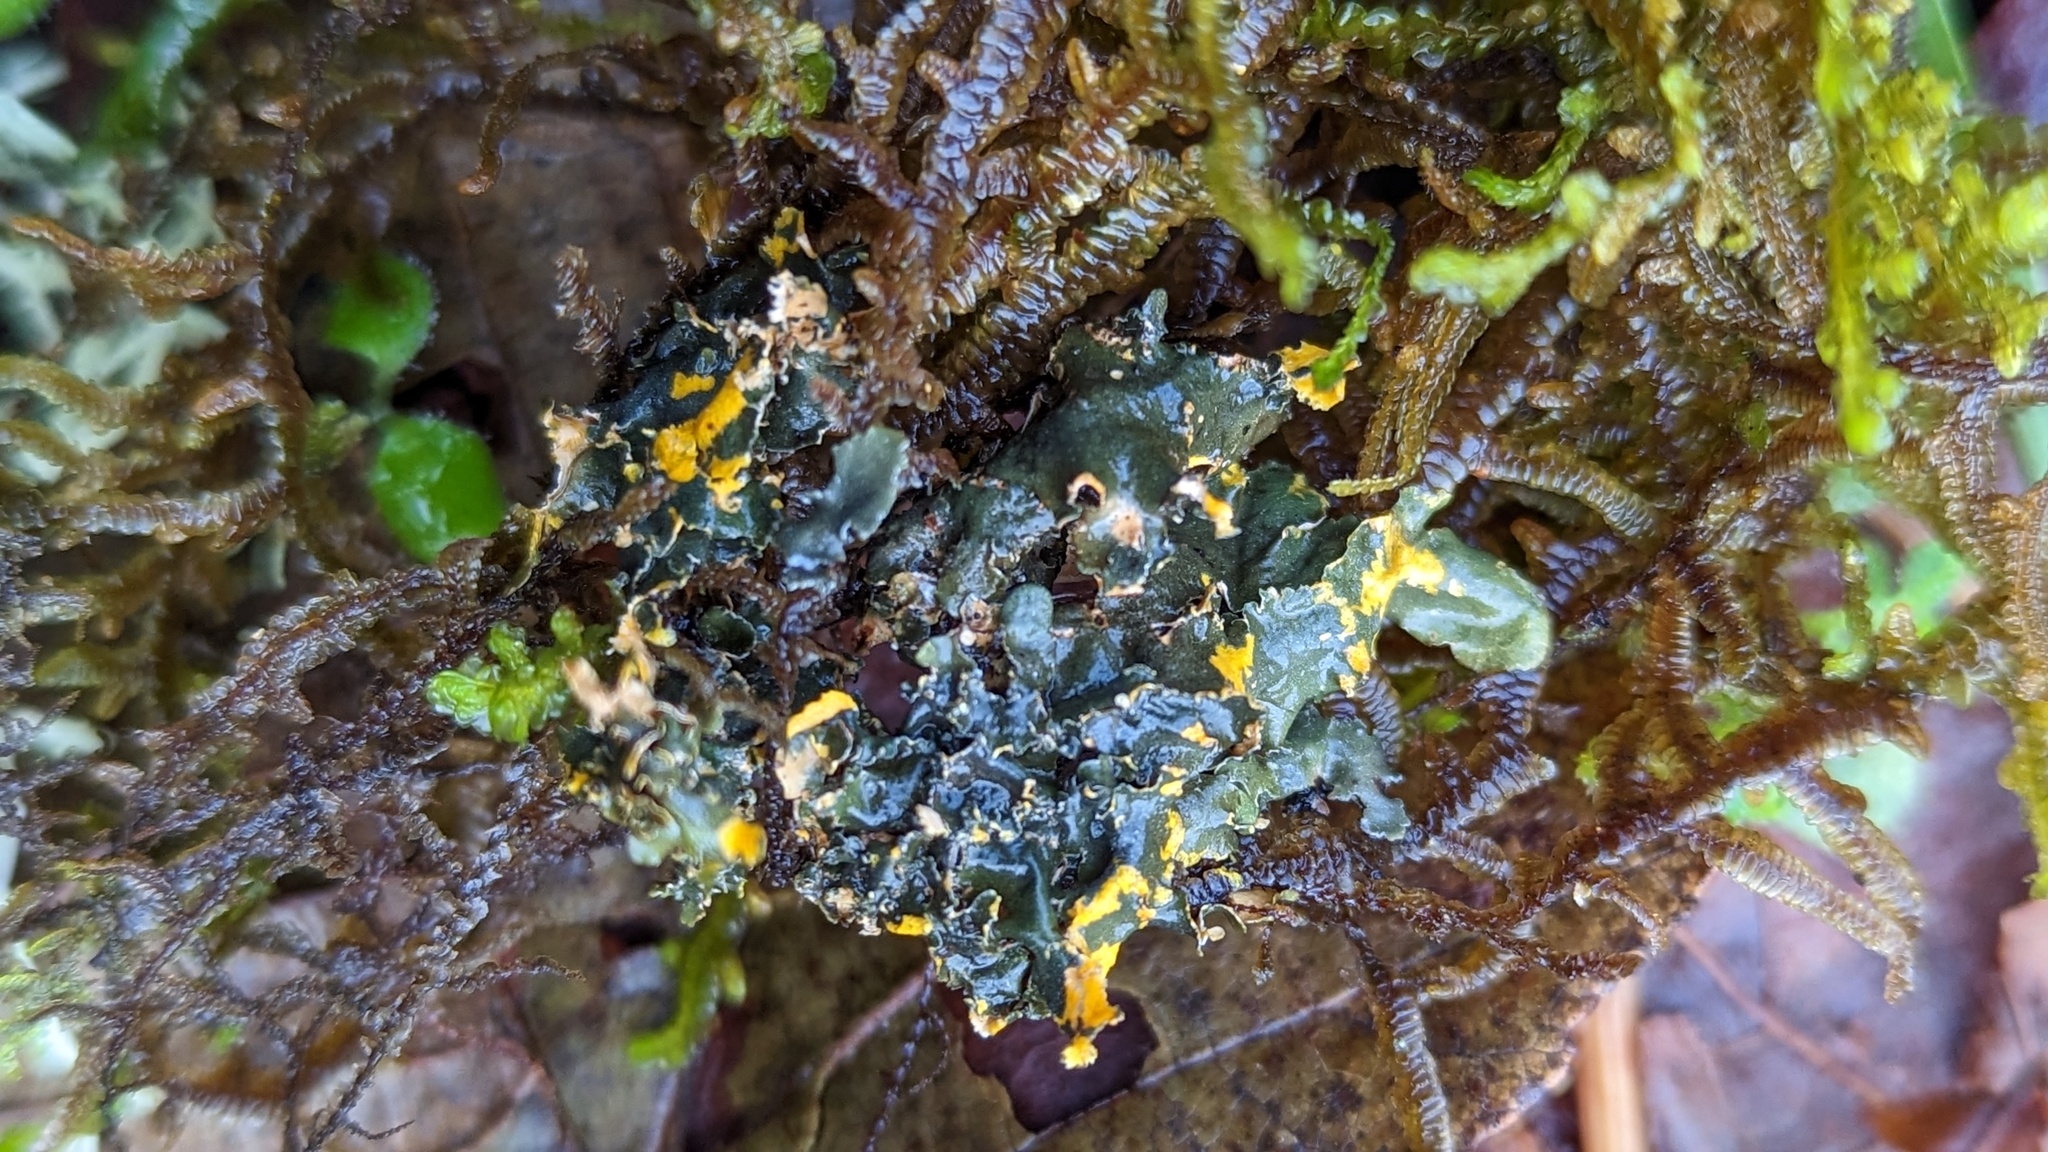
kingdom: Fungi
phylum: Ascomycota
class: Lecanoromycetes
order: Peltigerales
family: Nephromataceae
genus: Nephroma
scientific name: Nephroma laevigatum
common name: Mustard kidney lichen
